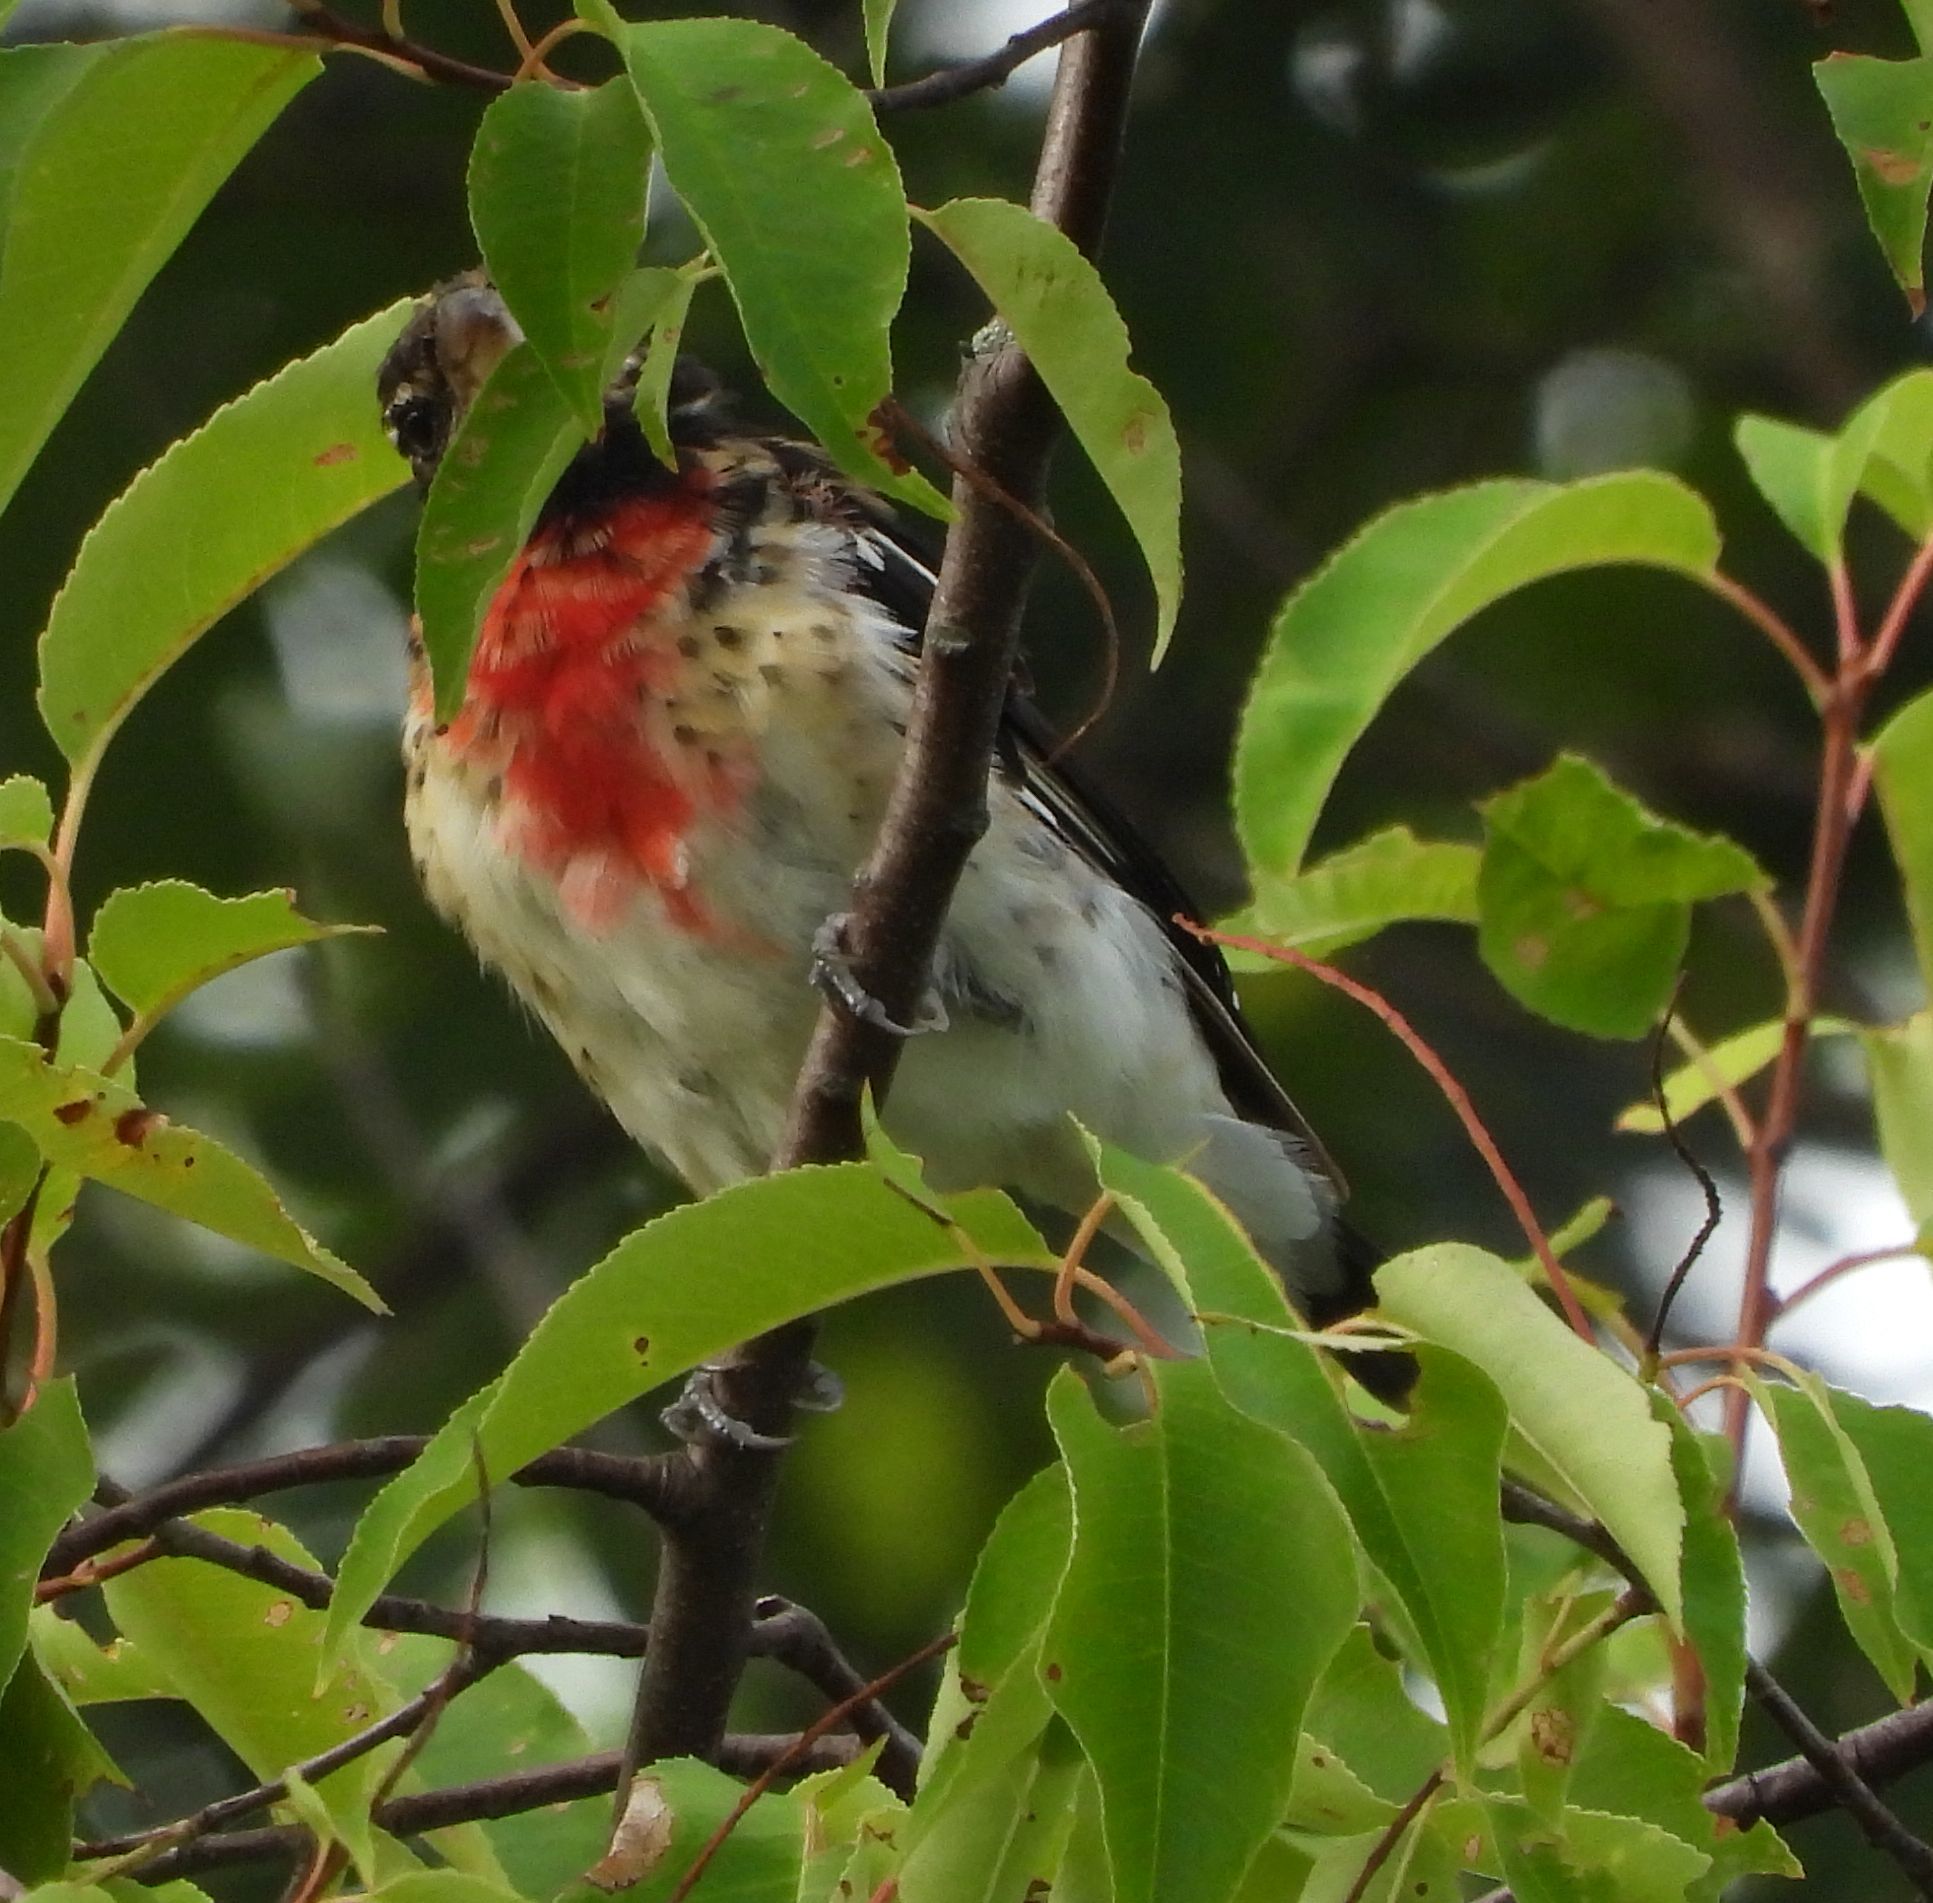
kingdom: Animalia
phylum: Chordata
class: Aves
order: Passeriformes
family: Cardinalidae
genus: Pheucticus
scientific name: Pheucticus ludovicianus
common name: Rose-breasted grosbeak
